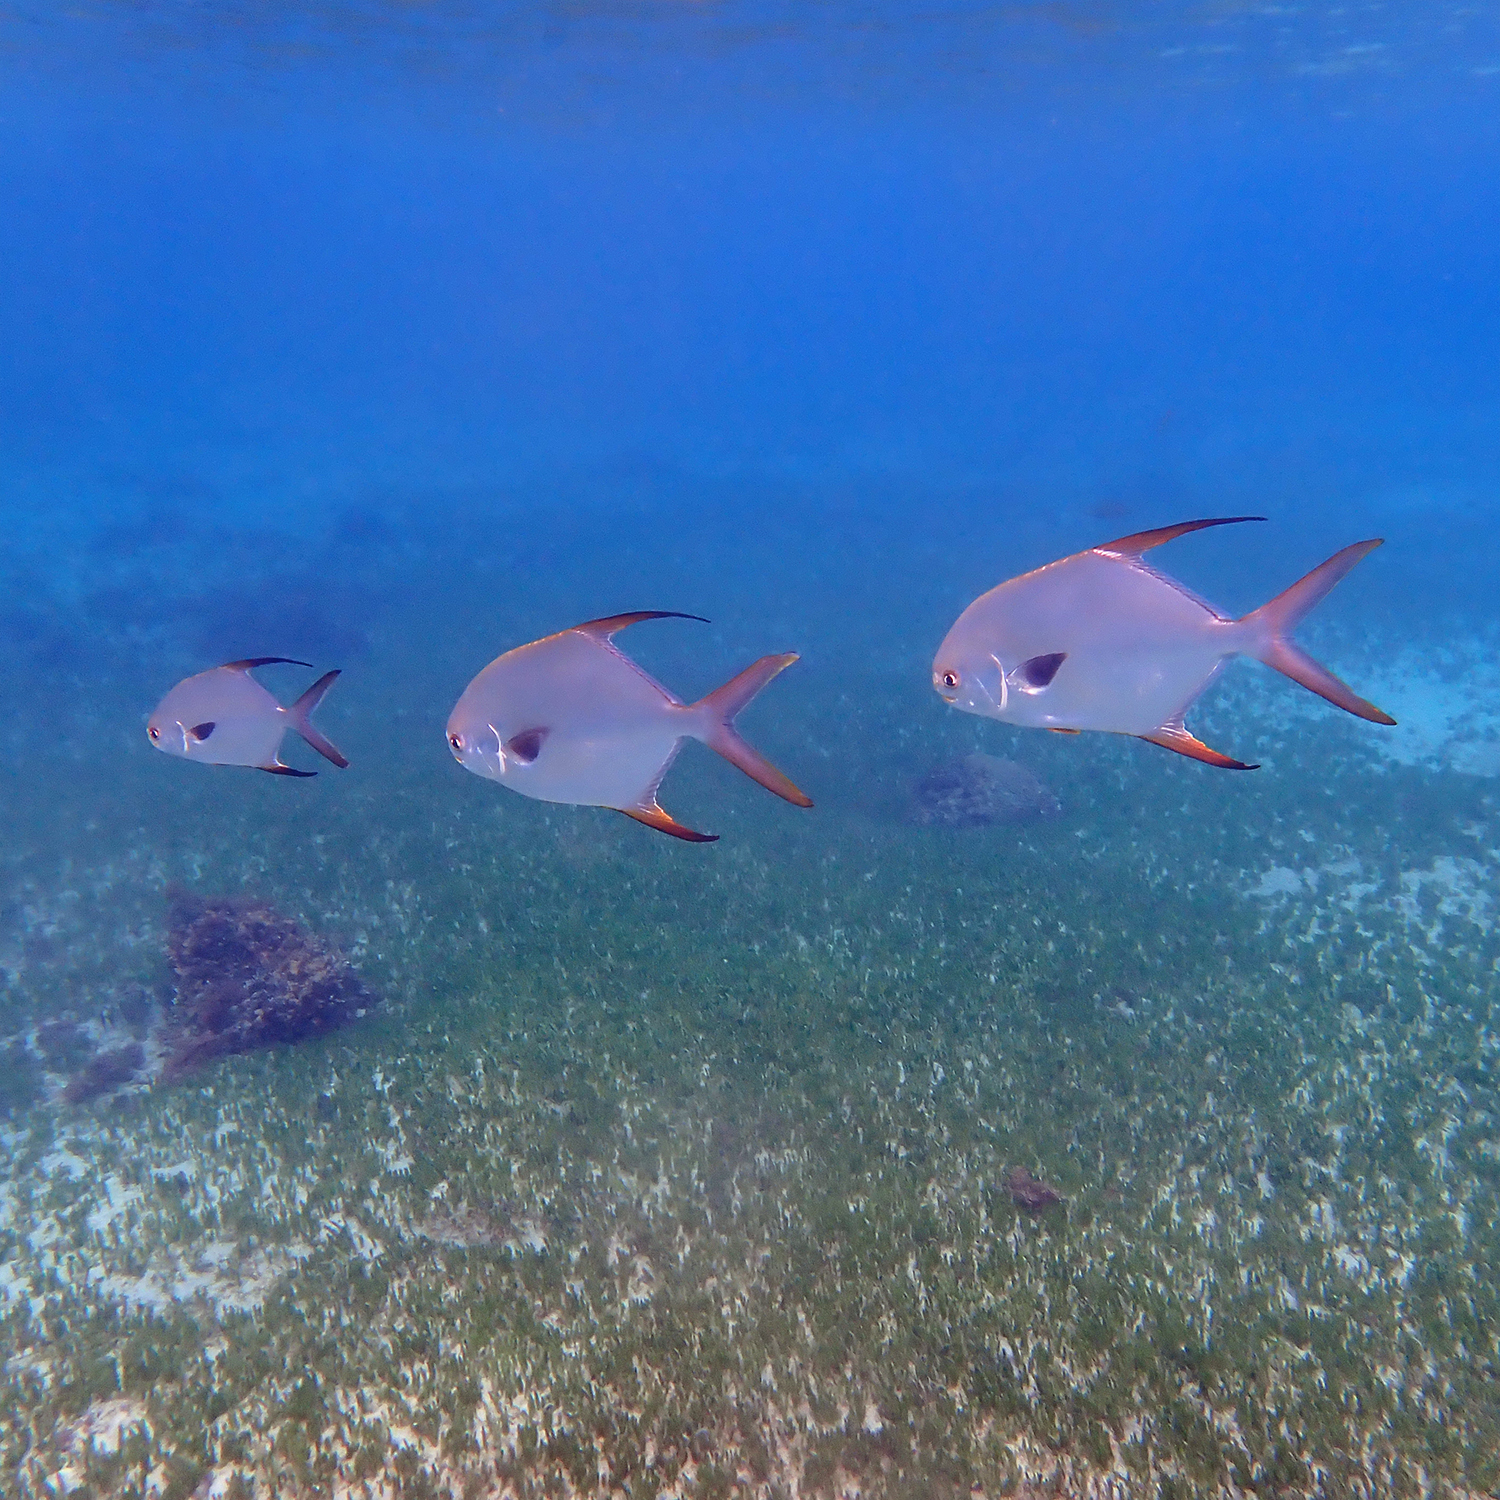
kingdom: Animalia
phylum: Chordata
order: Perciformes
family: Carangidae
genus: Trachinotus
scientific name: Trachinotus blochii
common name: Snubnose pompano
